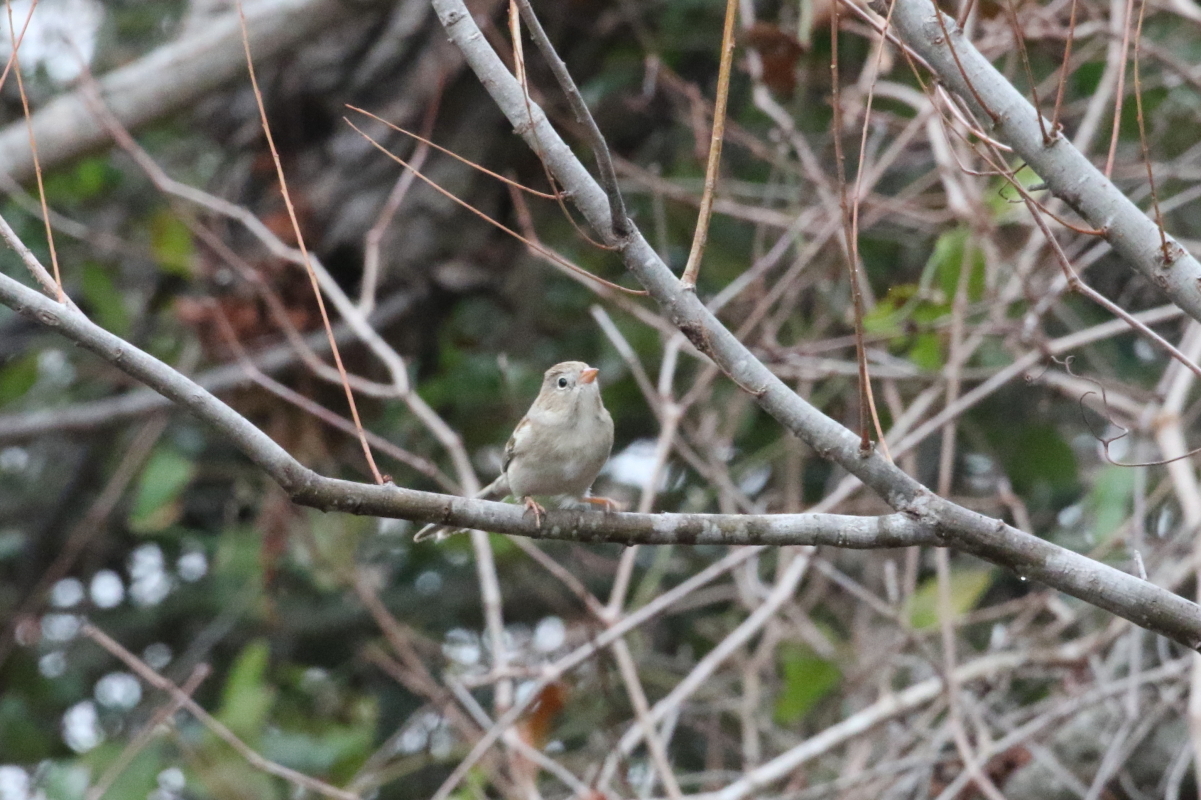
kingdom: Animalia
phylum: Chordata
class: Aves
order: Passeriformes
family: Passerellidae
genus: Spizella
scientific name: Spizella pusilla
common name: Field sparrow
